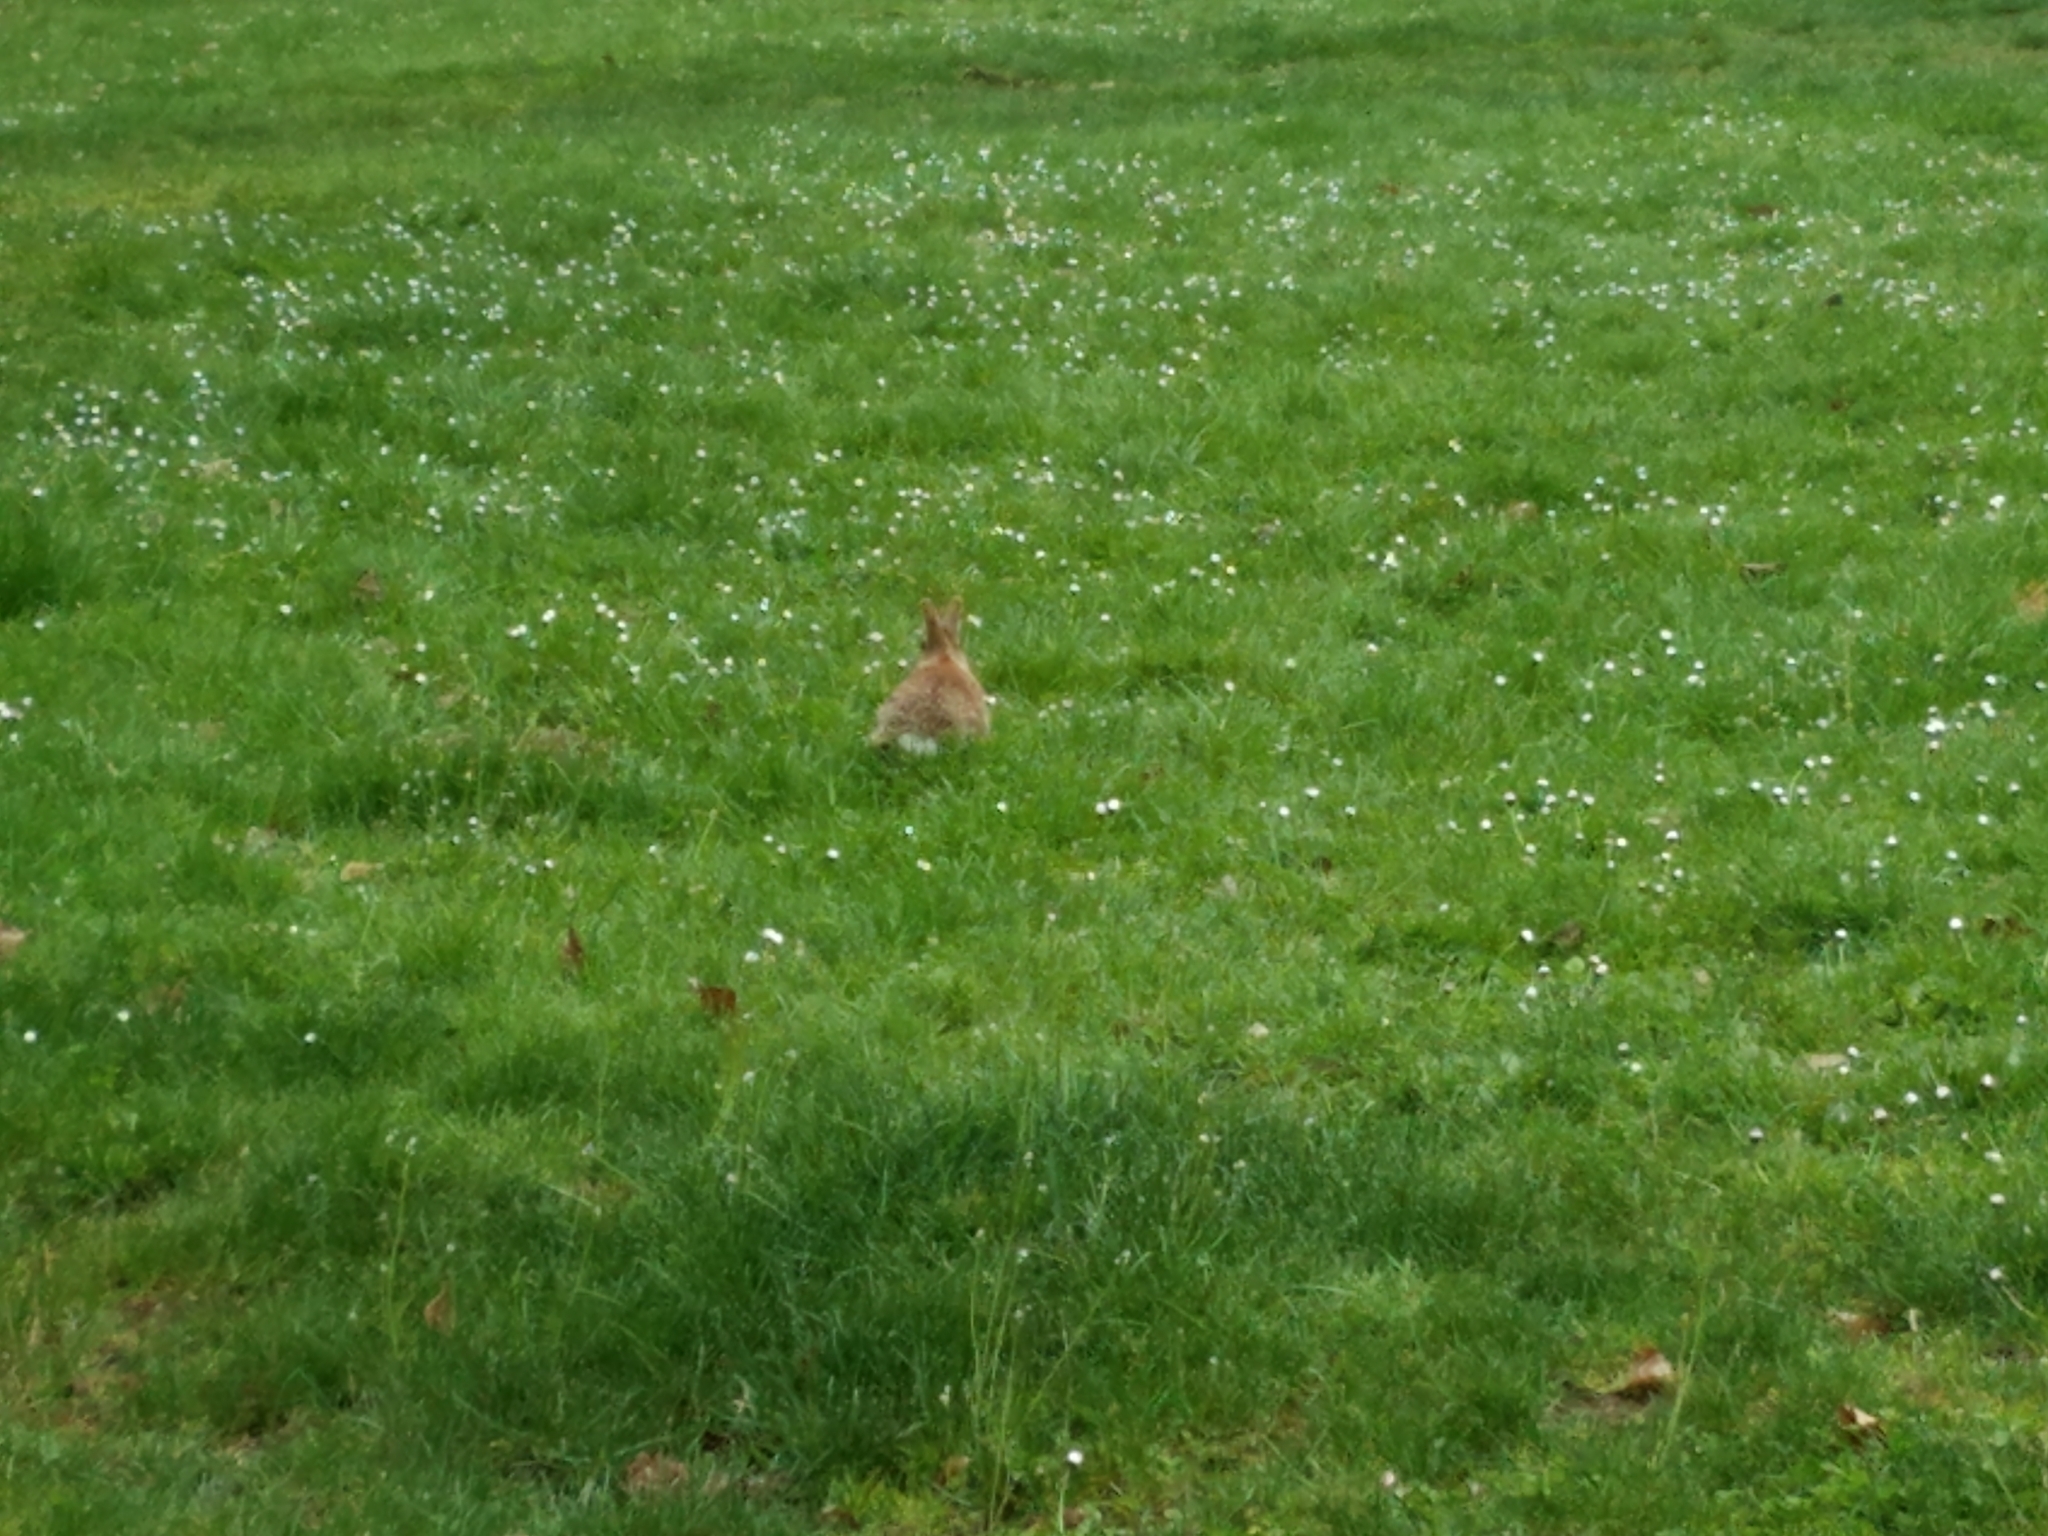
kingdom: Animalia
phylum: Chordata
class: Mammalia
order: Lagomorpha
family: Leporidae
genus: Sylvilagus
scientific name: Sylvilagus floridanus
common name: Eastern cottontail
